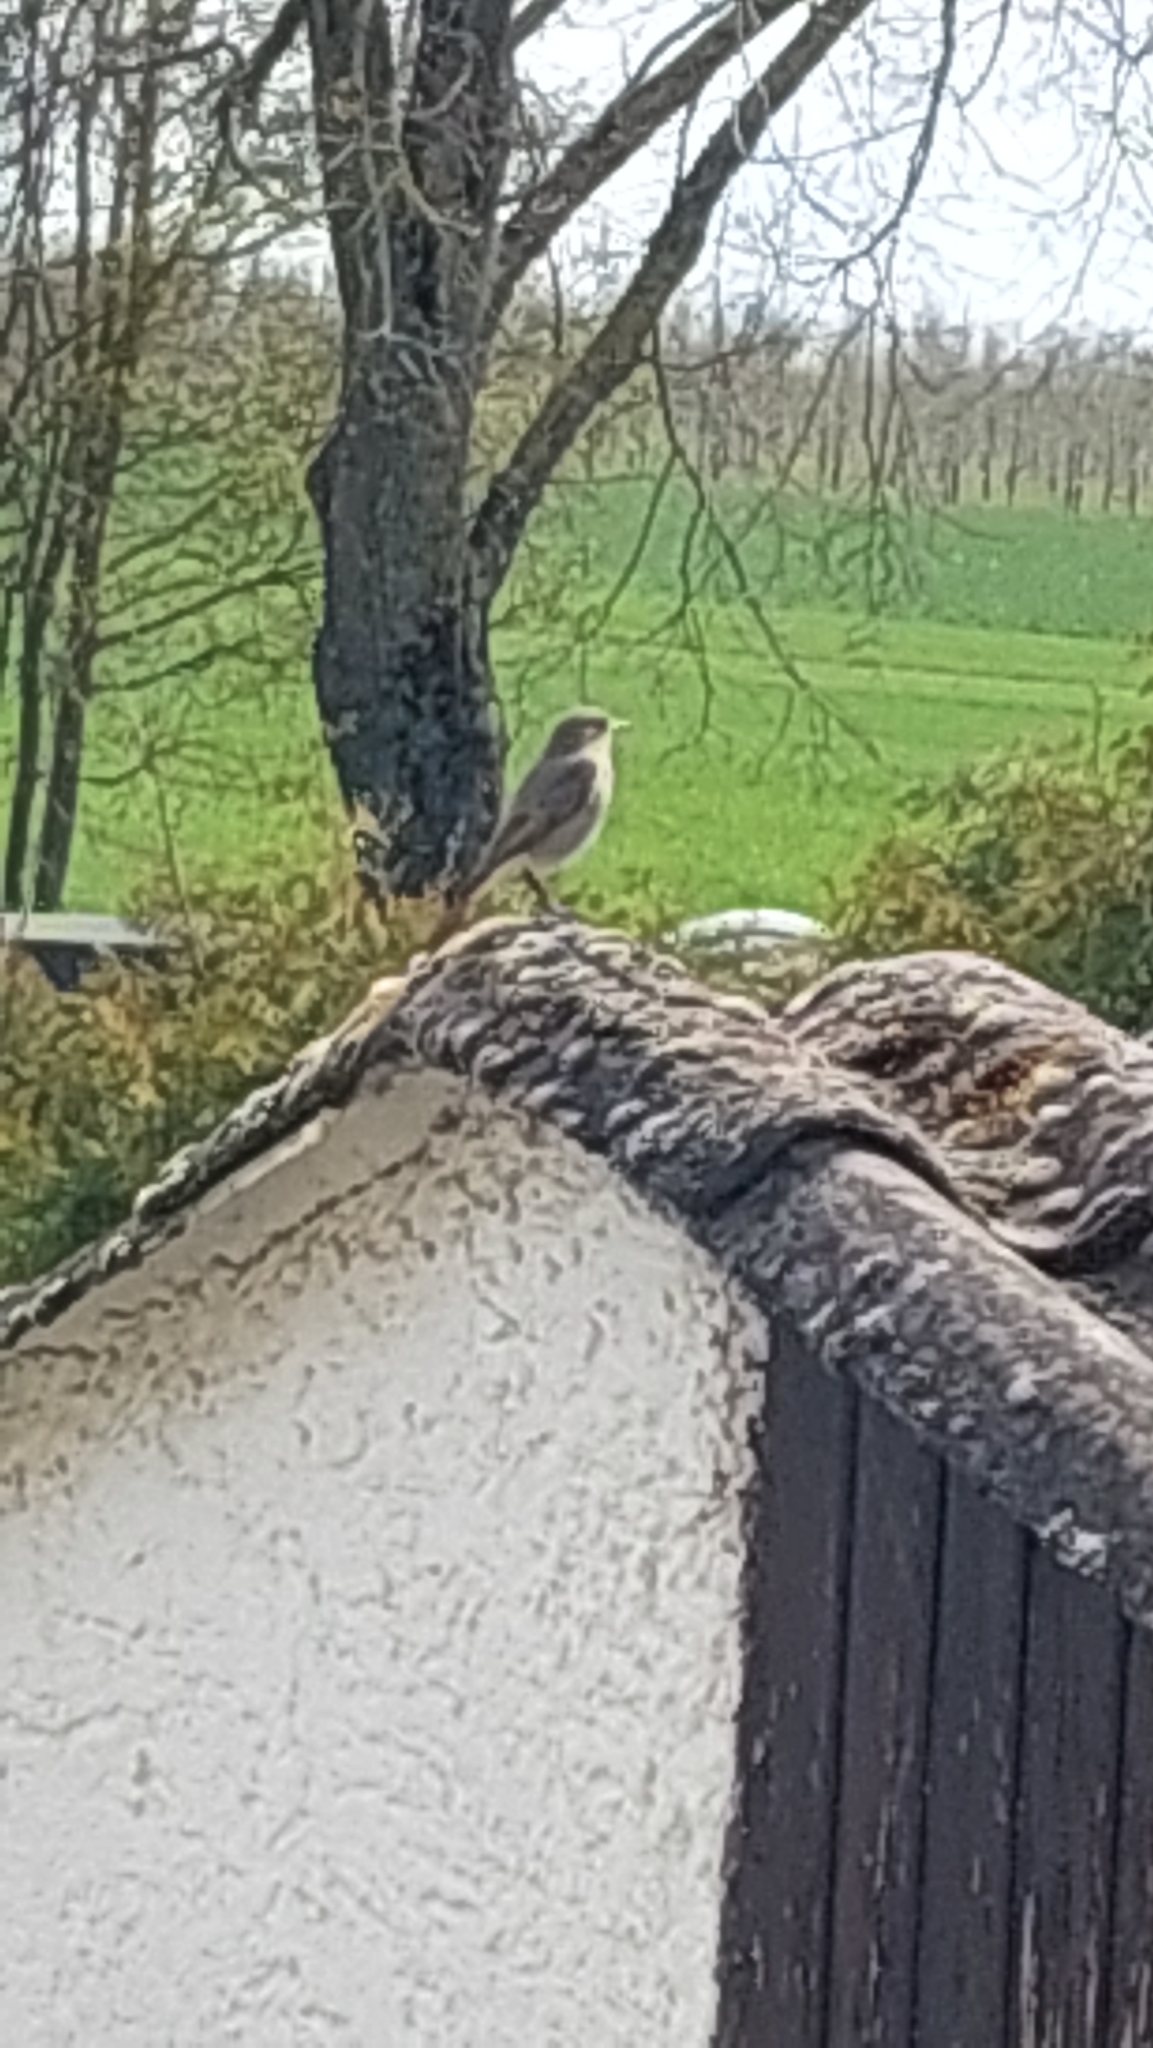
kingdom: Animalia
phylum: Chordata
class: Aves
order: Passeriformes
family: Muscicapidae
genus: Phoenicurus
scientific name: Phoenicurus ochruros
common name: Black redstart
